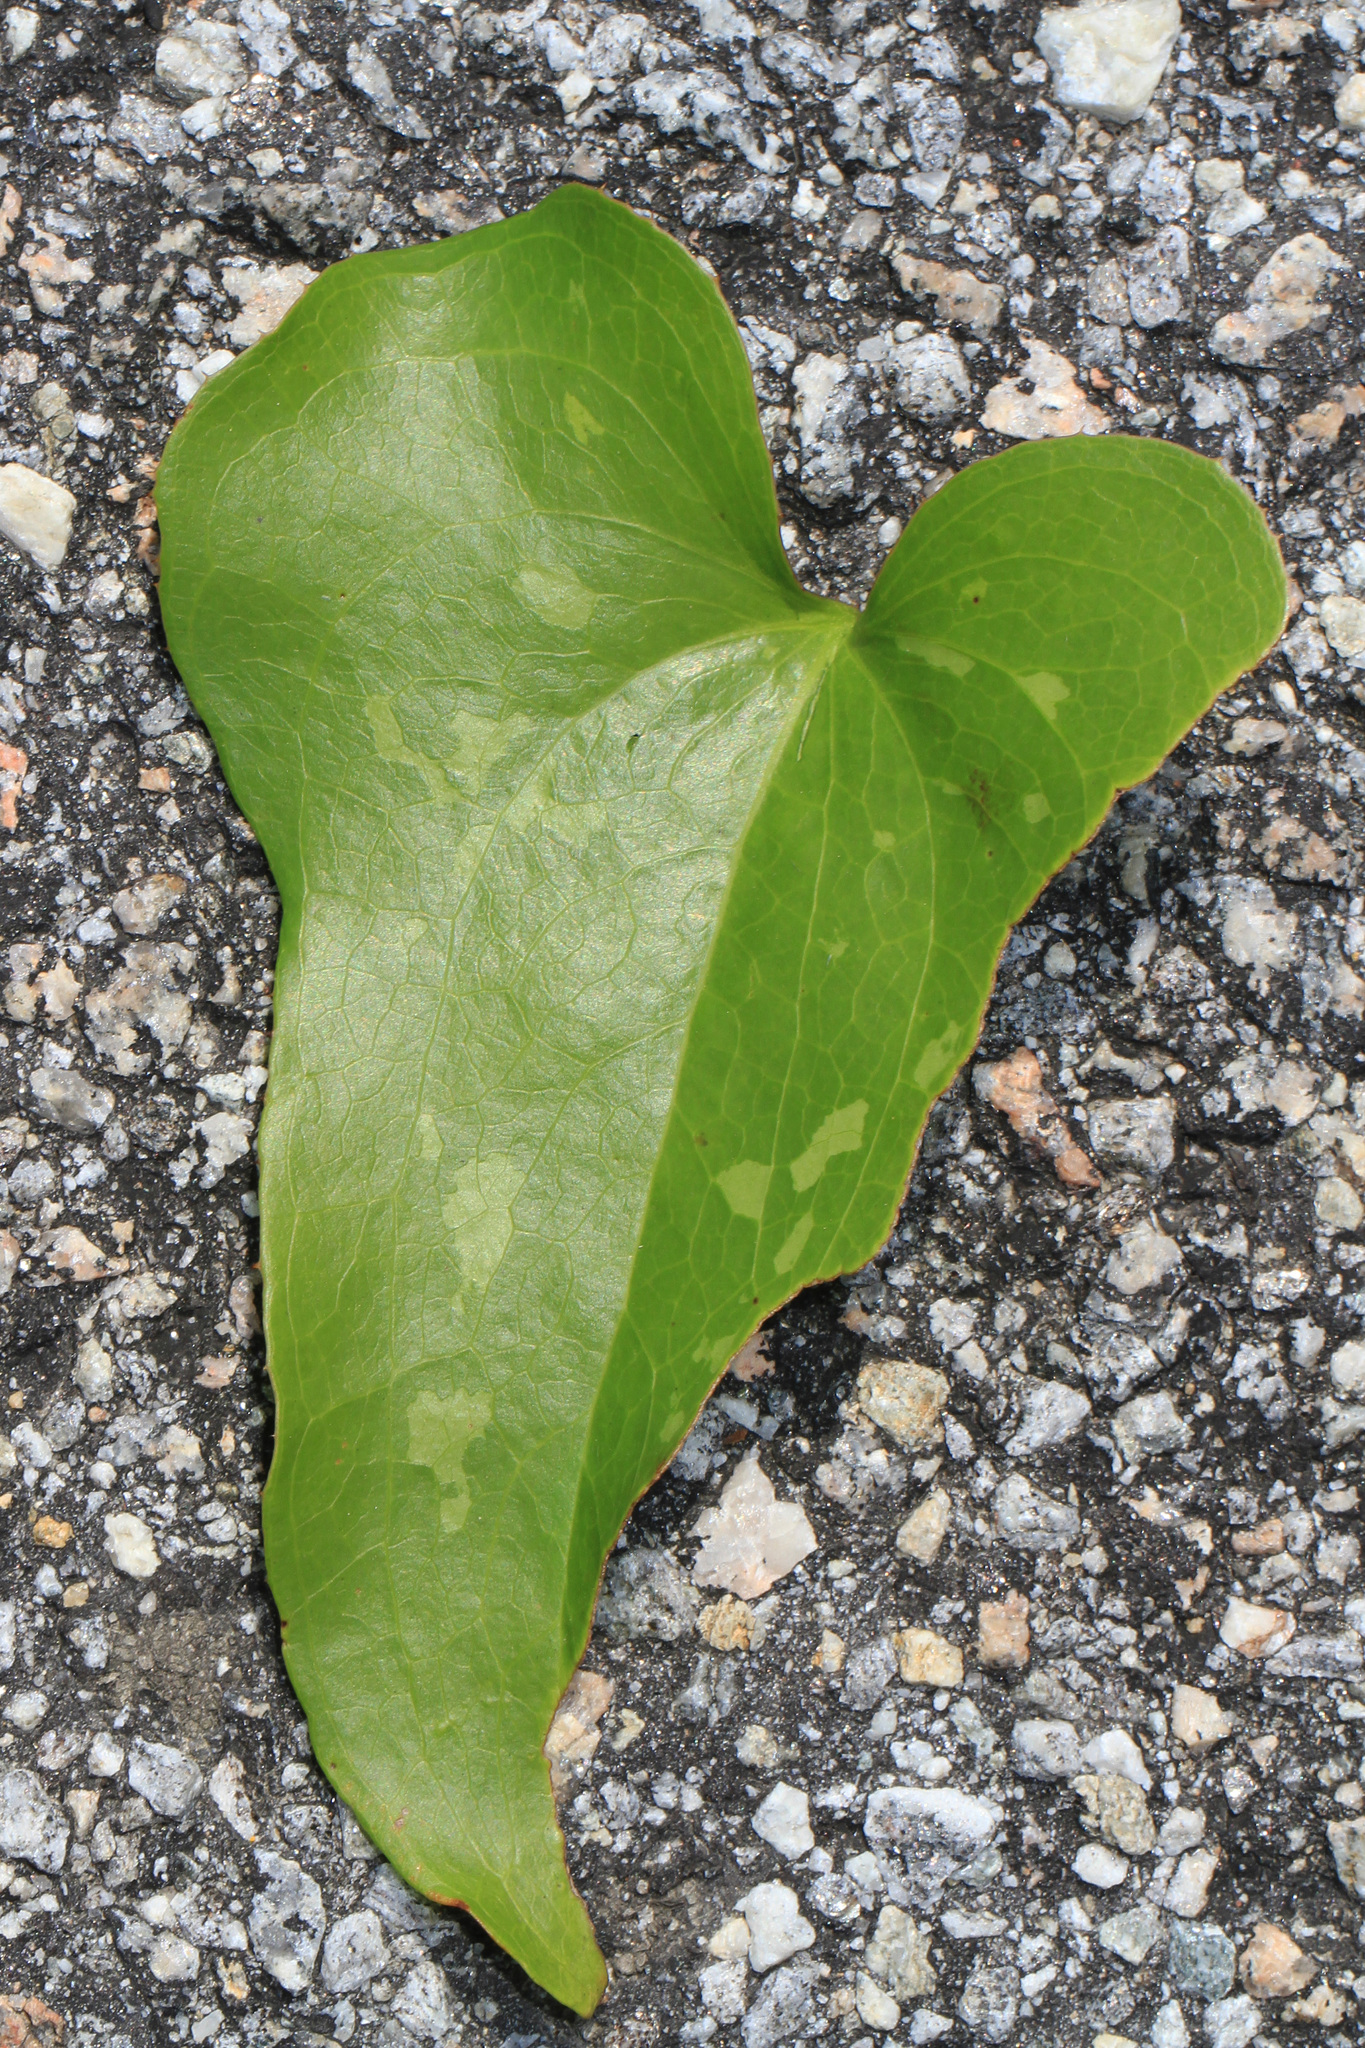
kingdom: Plantae
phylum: Tracheophyta
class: Liliopsida
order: Liliales
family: Smilacaceae
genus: Smilax
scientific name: Smilax bona-nox
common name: Catbrier
